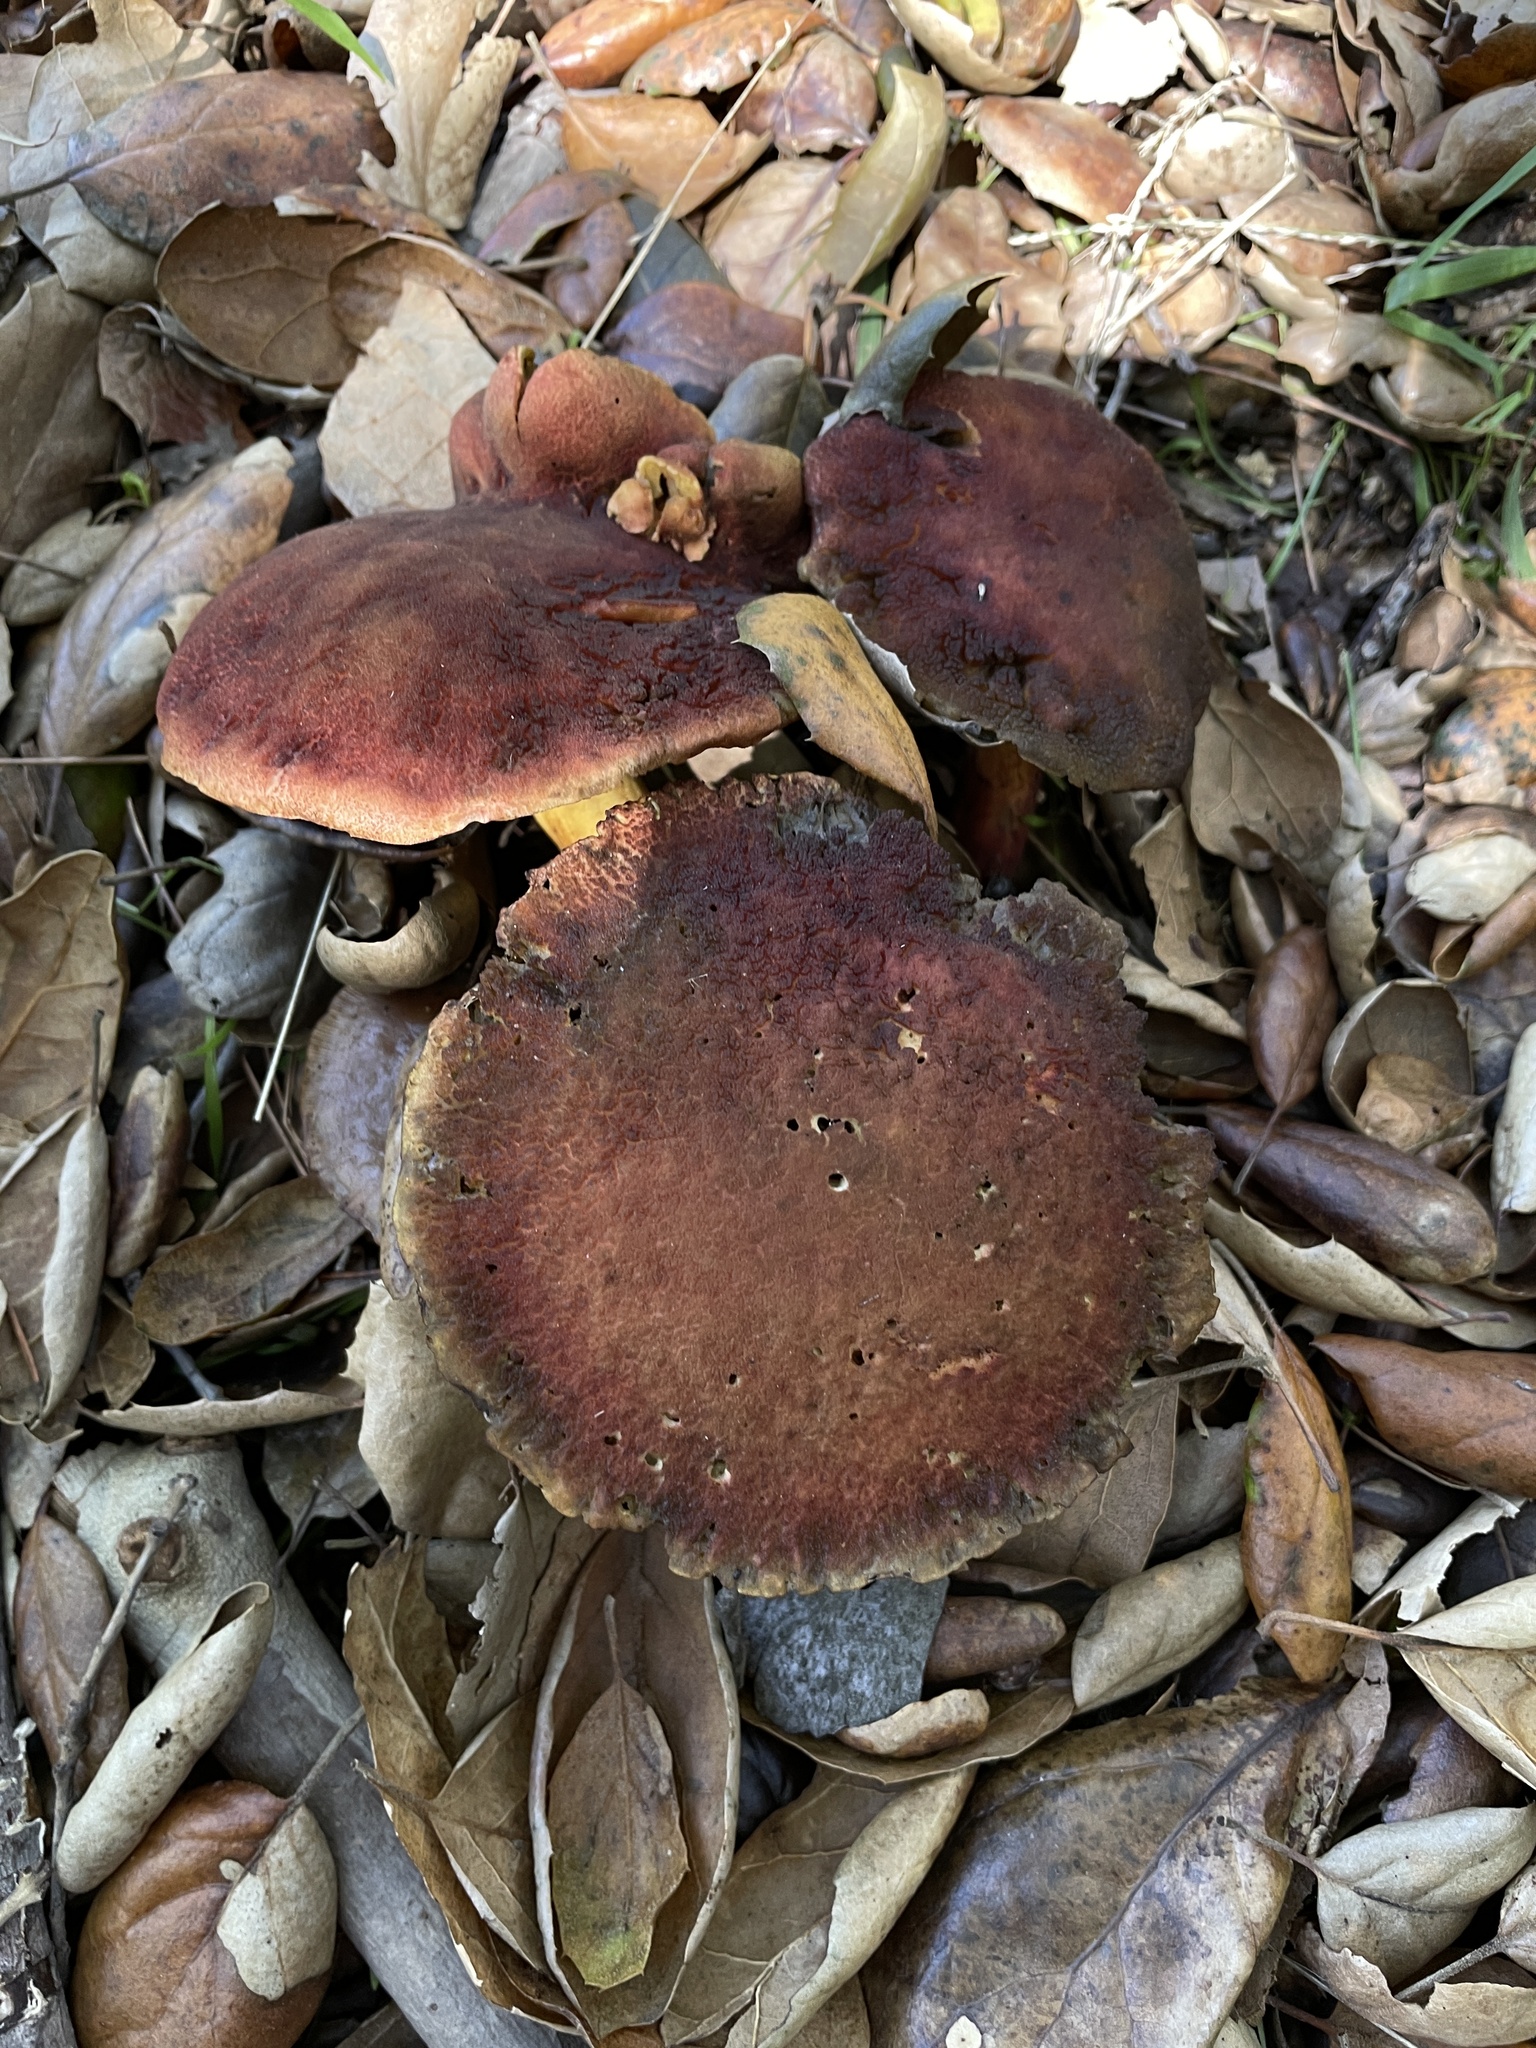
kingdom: Fungi
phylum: Basidiomycota
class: Agaricomycetes
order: Boletales
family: Boletaceae
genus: Xerocomellus
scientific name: Xerocomellus dryophilus
